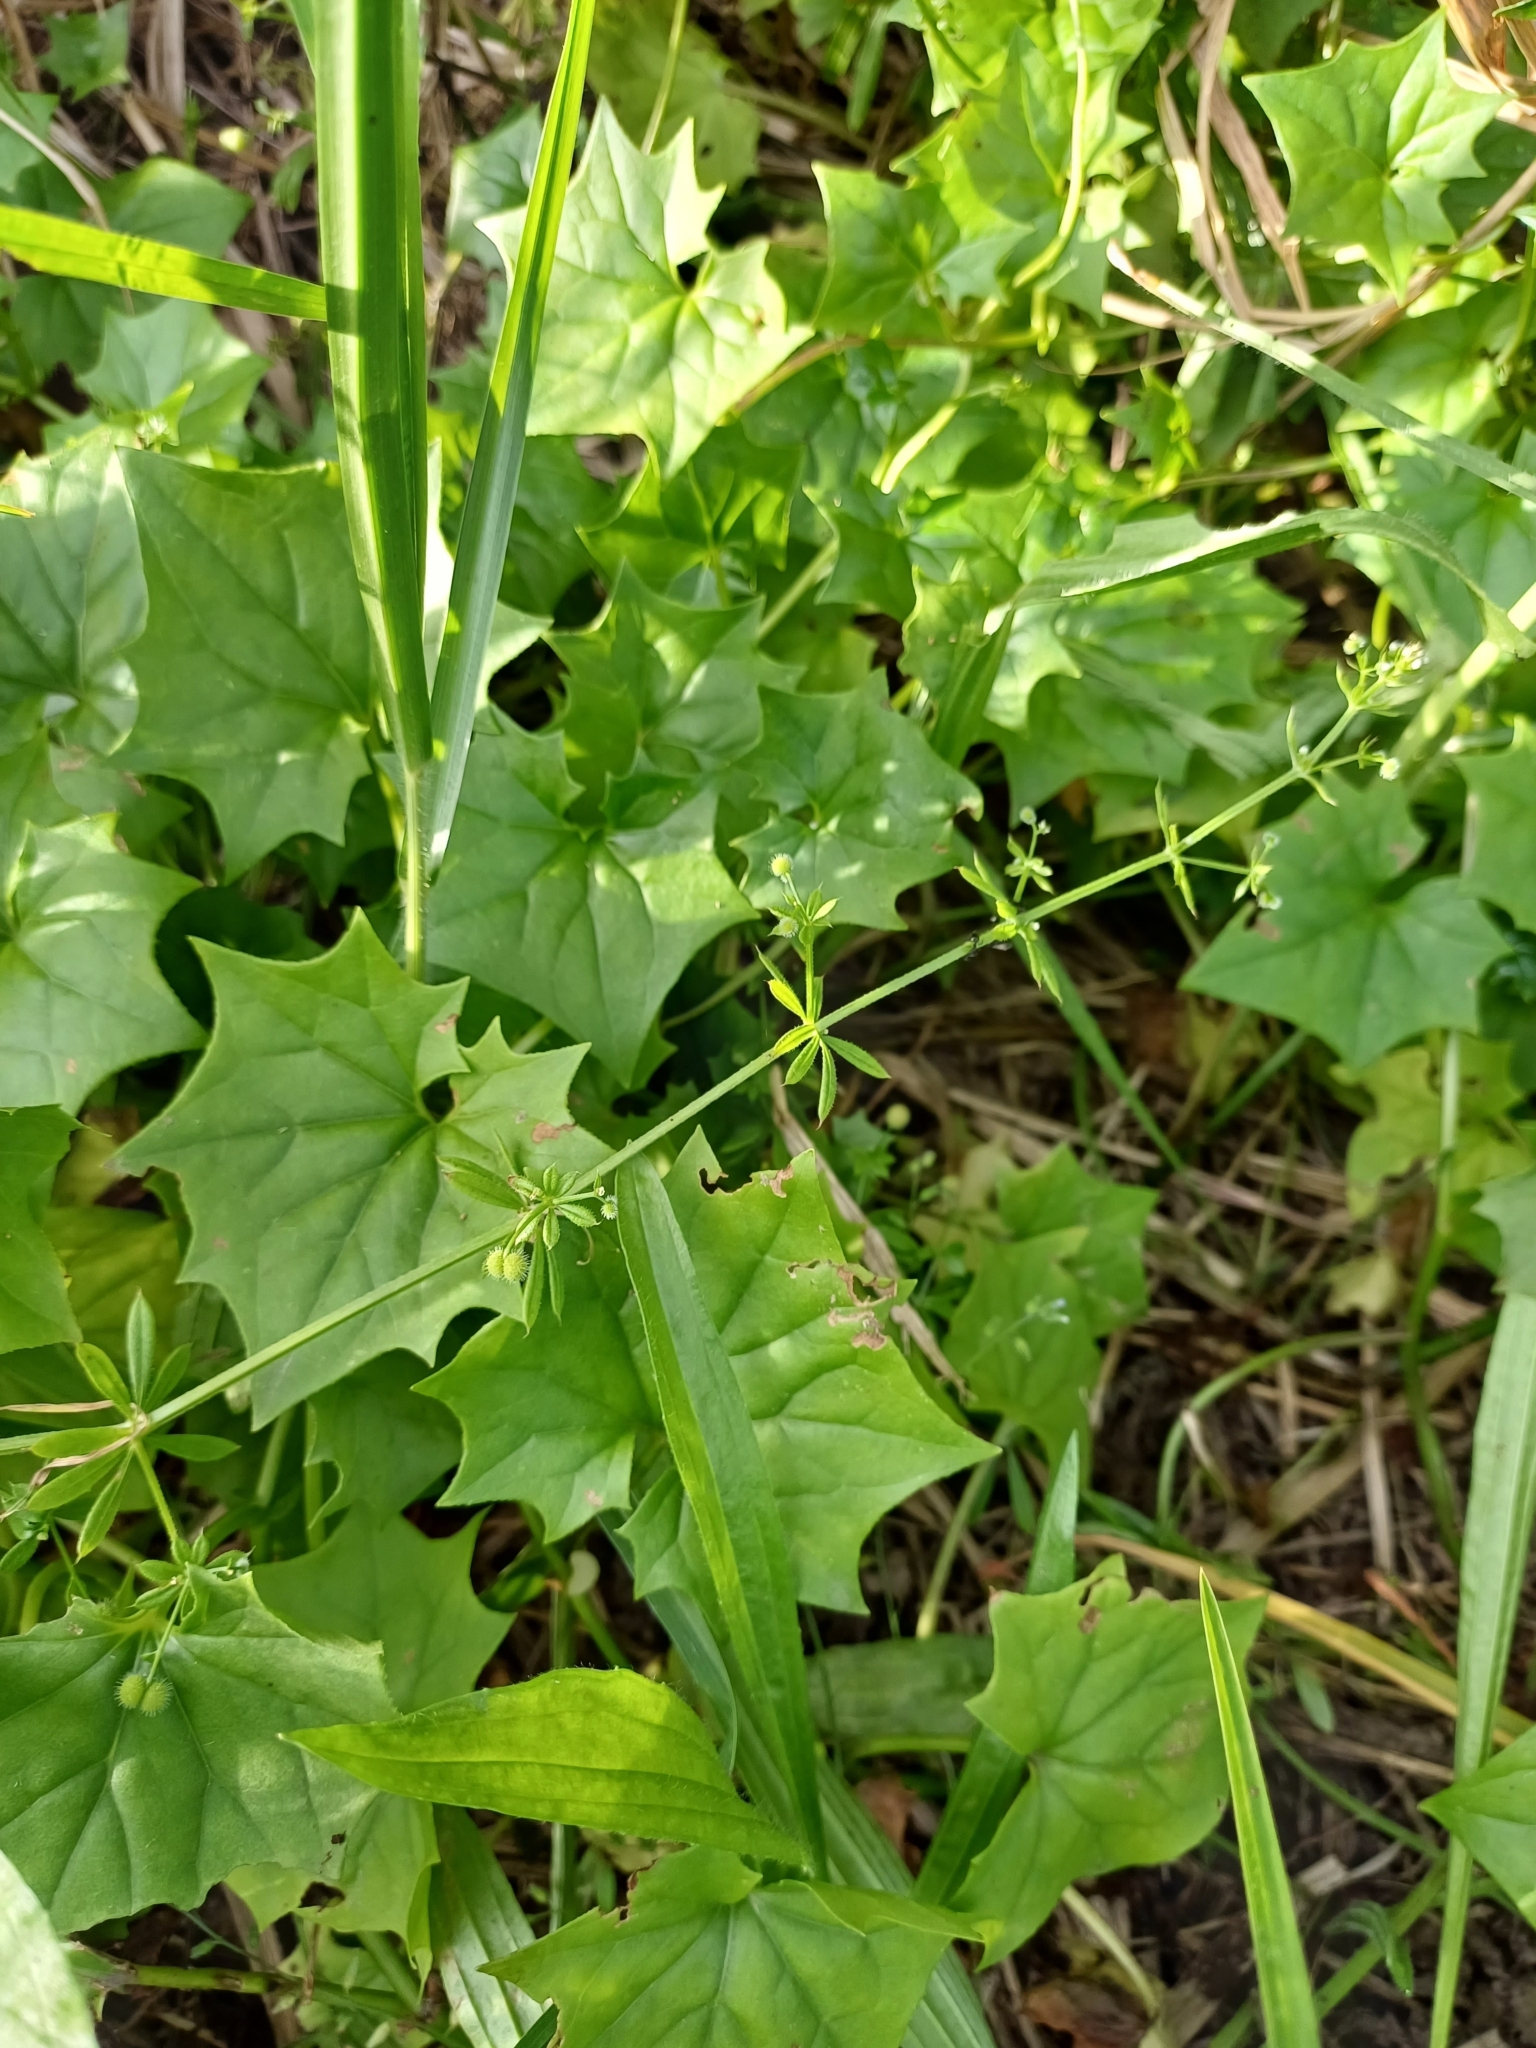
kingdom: Plantae
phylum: Tracheophyta
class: Magnoliopsida
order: Asterales
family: Asteraceae
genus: Delairea
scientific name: Delairea odorata
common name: Cape-ivy
